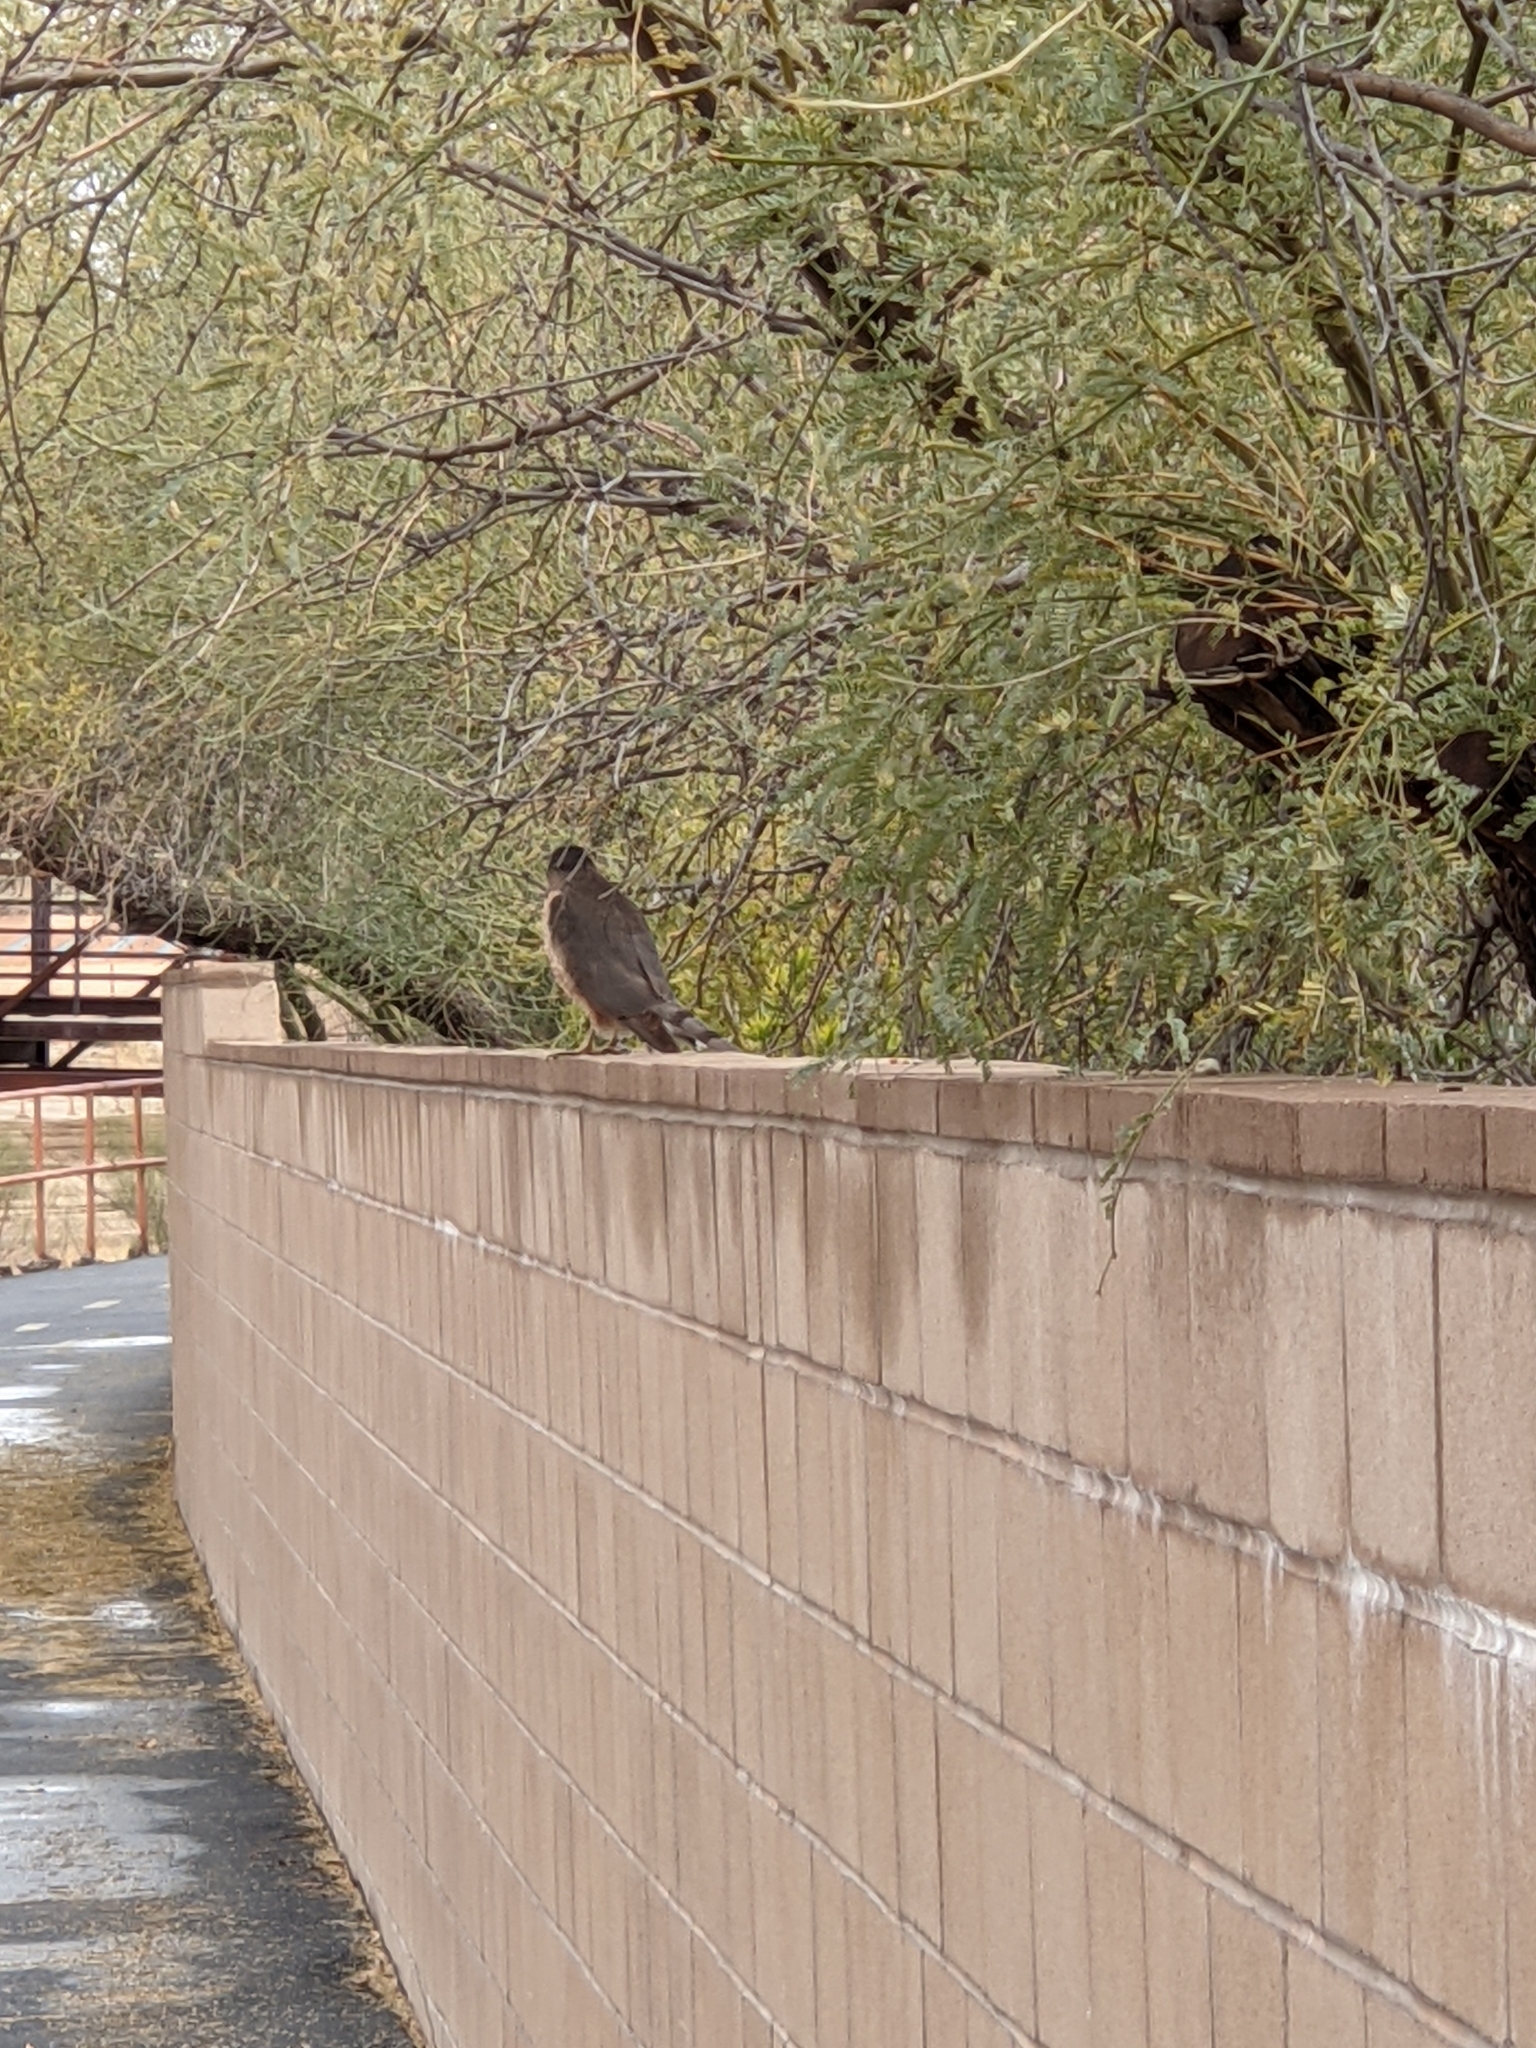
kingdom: Animalia
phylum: Chordata
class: Aves
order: Accipitriformes
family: Accipitridae
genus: Accipiter
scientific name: Accipiter cooperii
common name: Cooper's hawk
